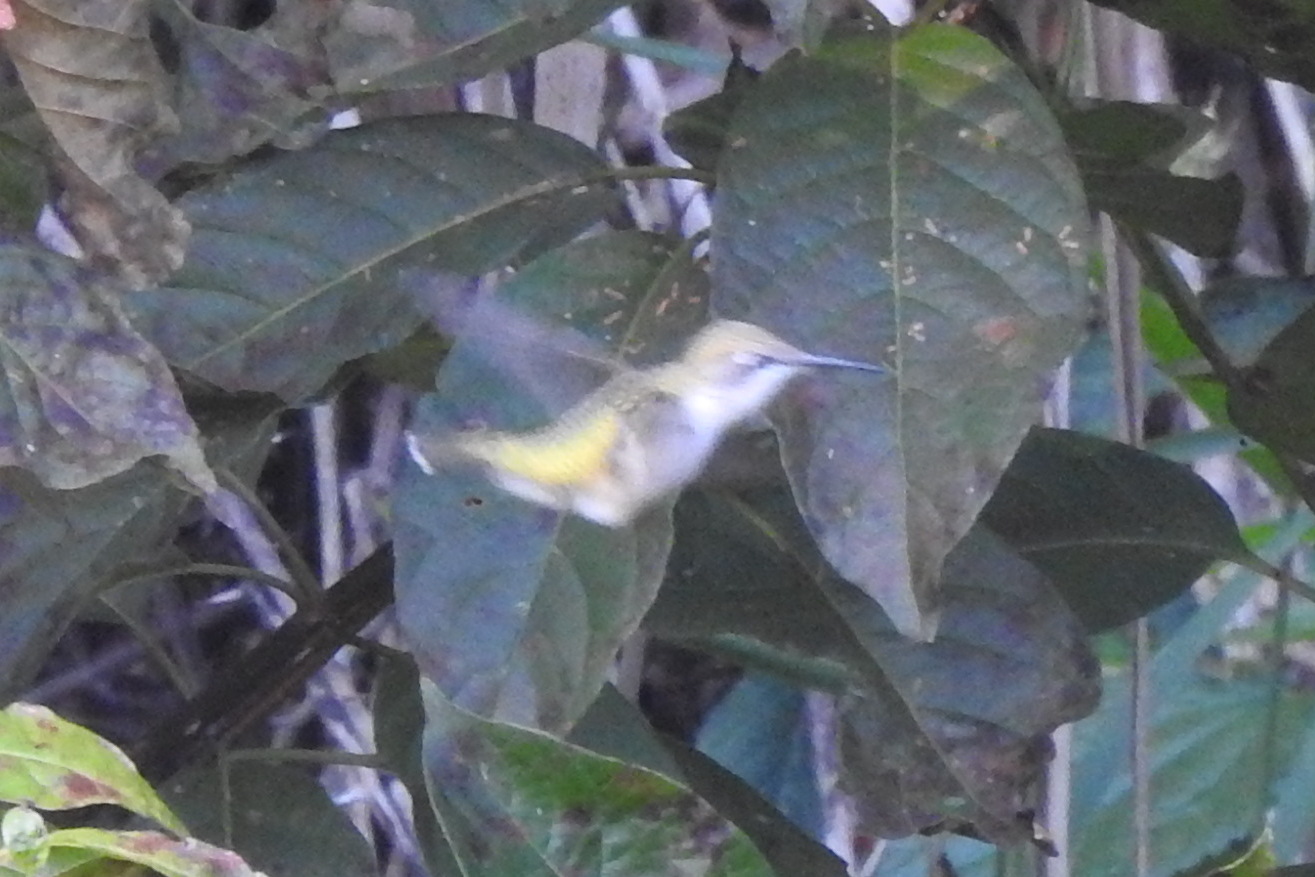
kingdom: Animalia
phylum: Chordata
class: Aves
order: Apodiformes
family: Trochilidae
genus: Archilochus
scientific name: Archilochus colubris
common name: Ruby-throated hummingbird
